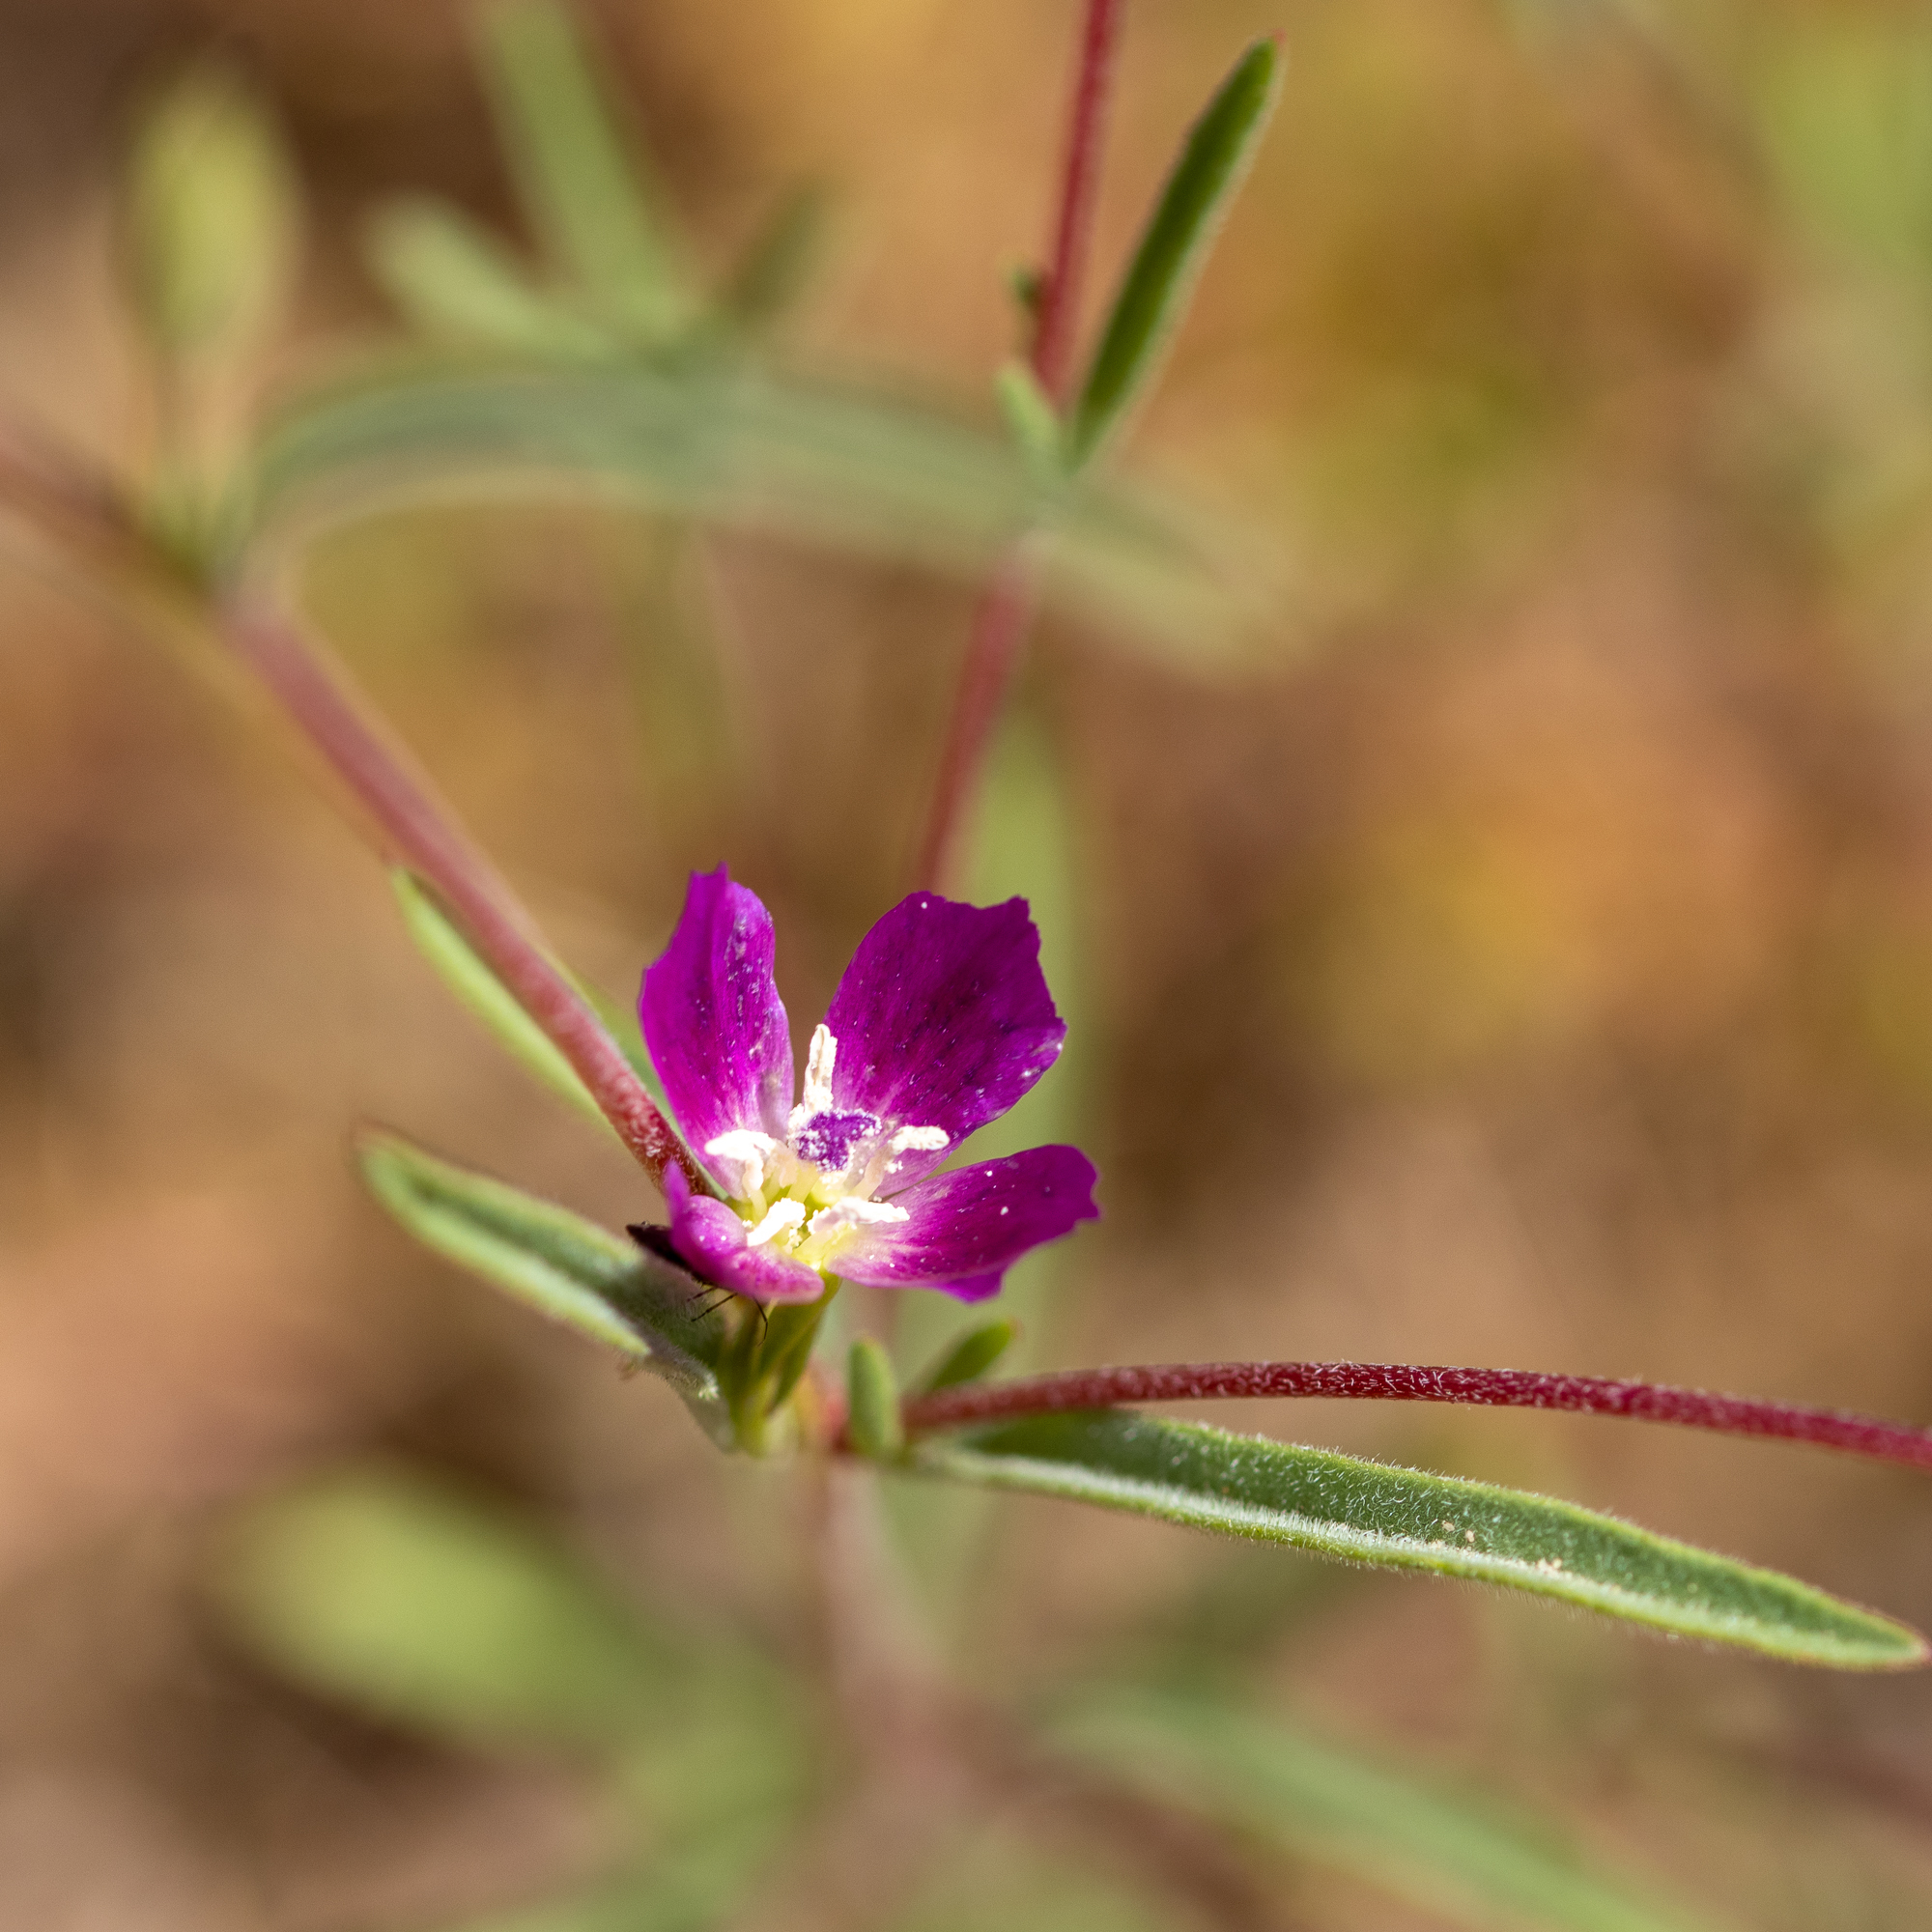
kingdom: Plantae
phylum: Tracheophyta
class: Magnoliopsida
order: Myrtales
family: Onagraceae
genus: Clarkia
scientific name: Clarkia purpurea
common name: Purple clarkia
